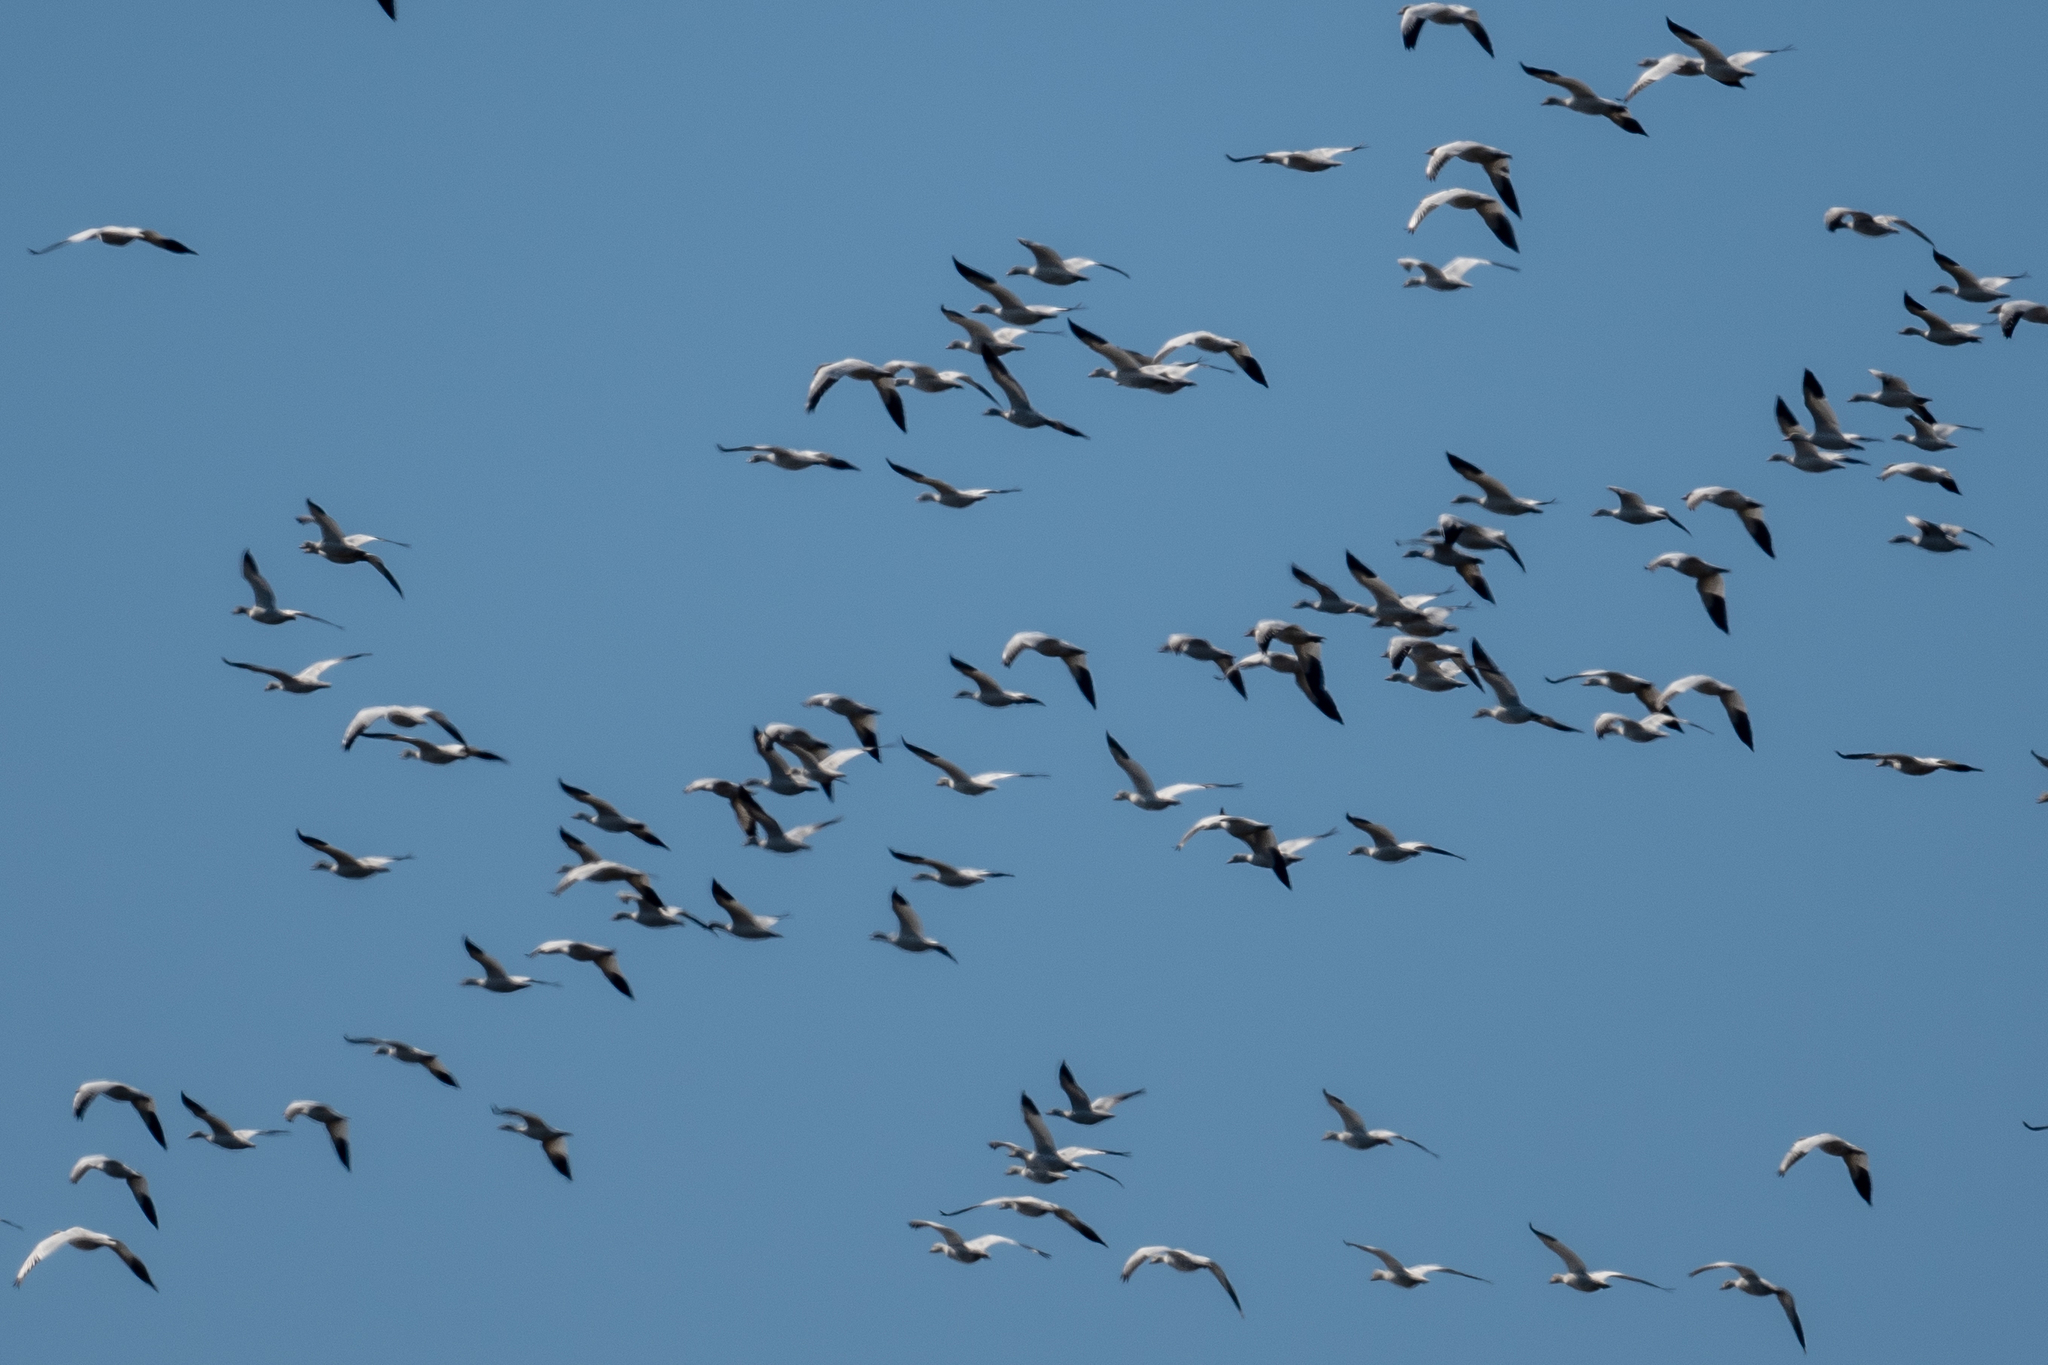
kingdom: Animalia
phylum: Chordata
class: Aves
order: Anseriformes
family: Anatidae
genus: Anser
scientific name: Anser caerulescens
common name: Snow goose
